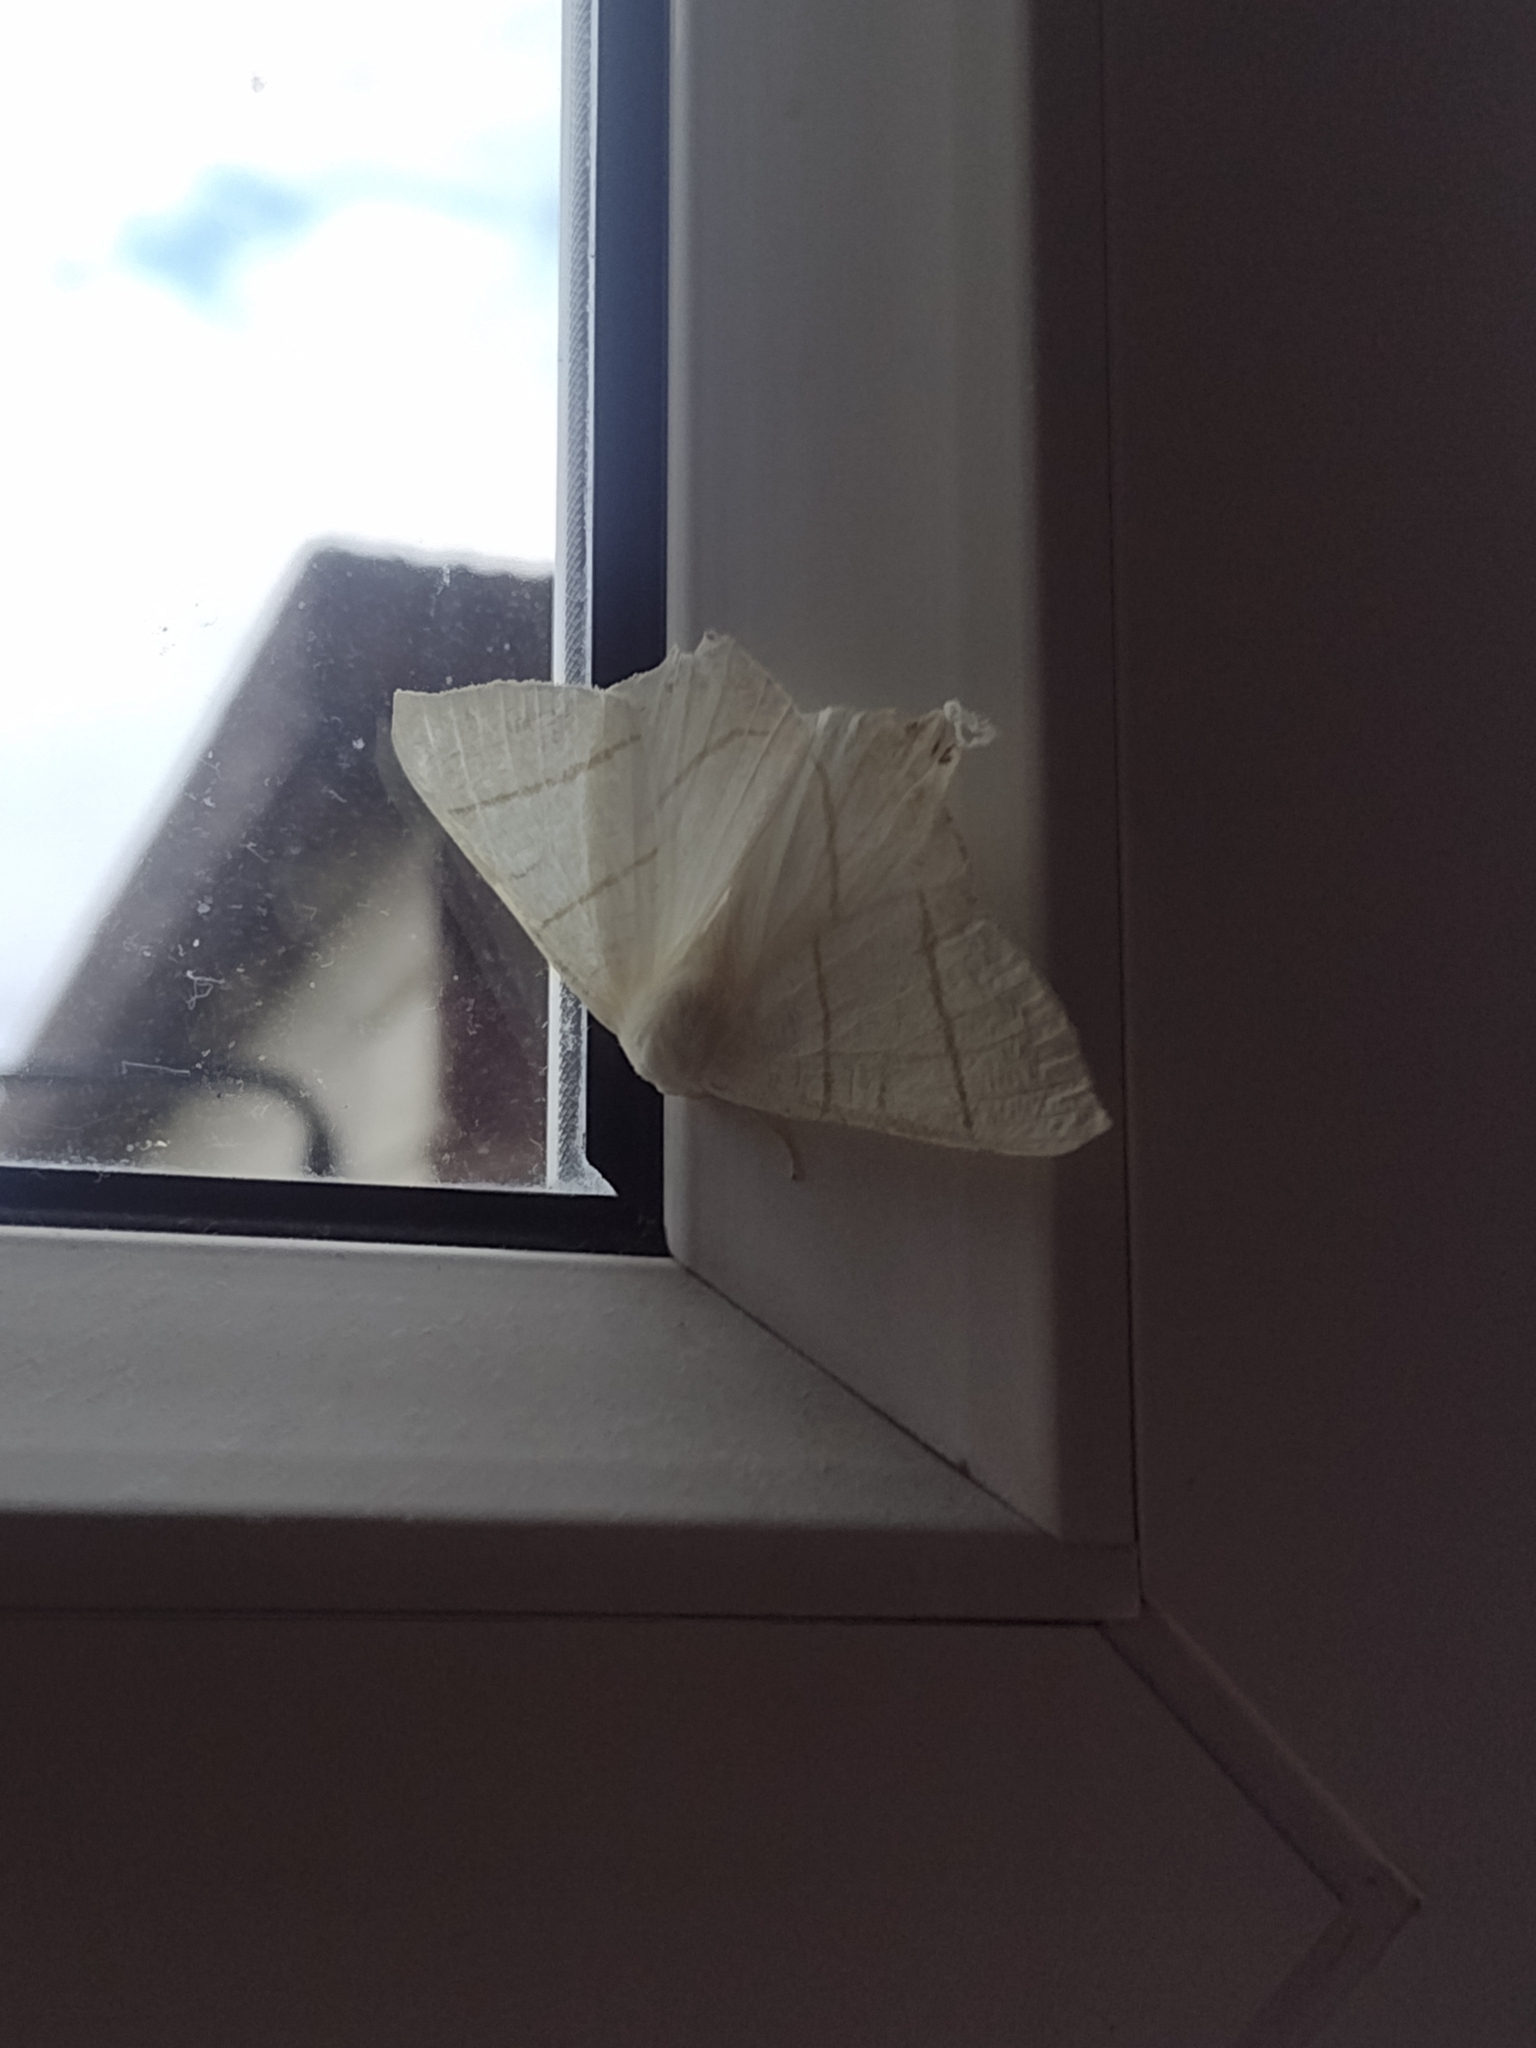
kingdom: Animalia
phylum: Arthropoda
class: Insecta
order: Lepidoptera
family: Geometridae
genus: Ourapteryx
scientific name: Ourapteryx sambucaria
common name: Swallow-tailed moth
